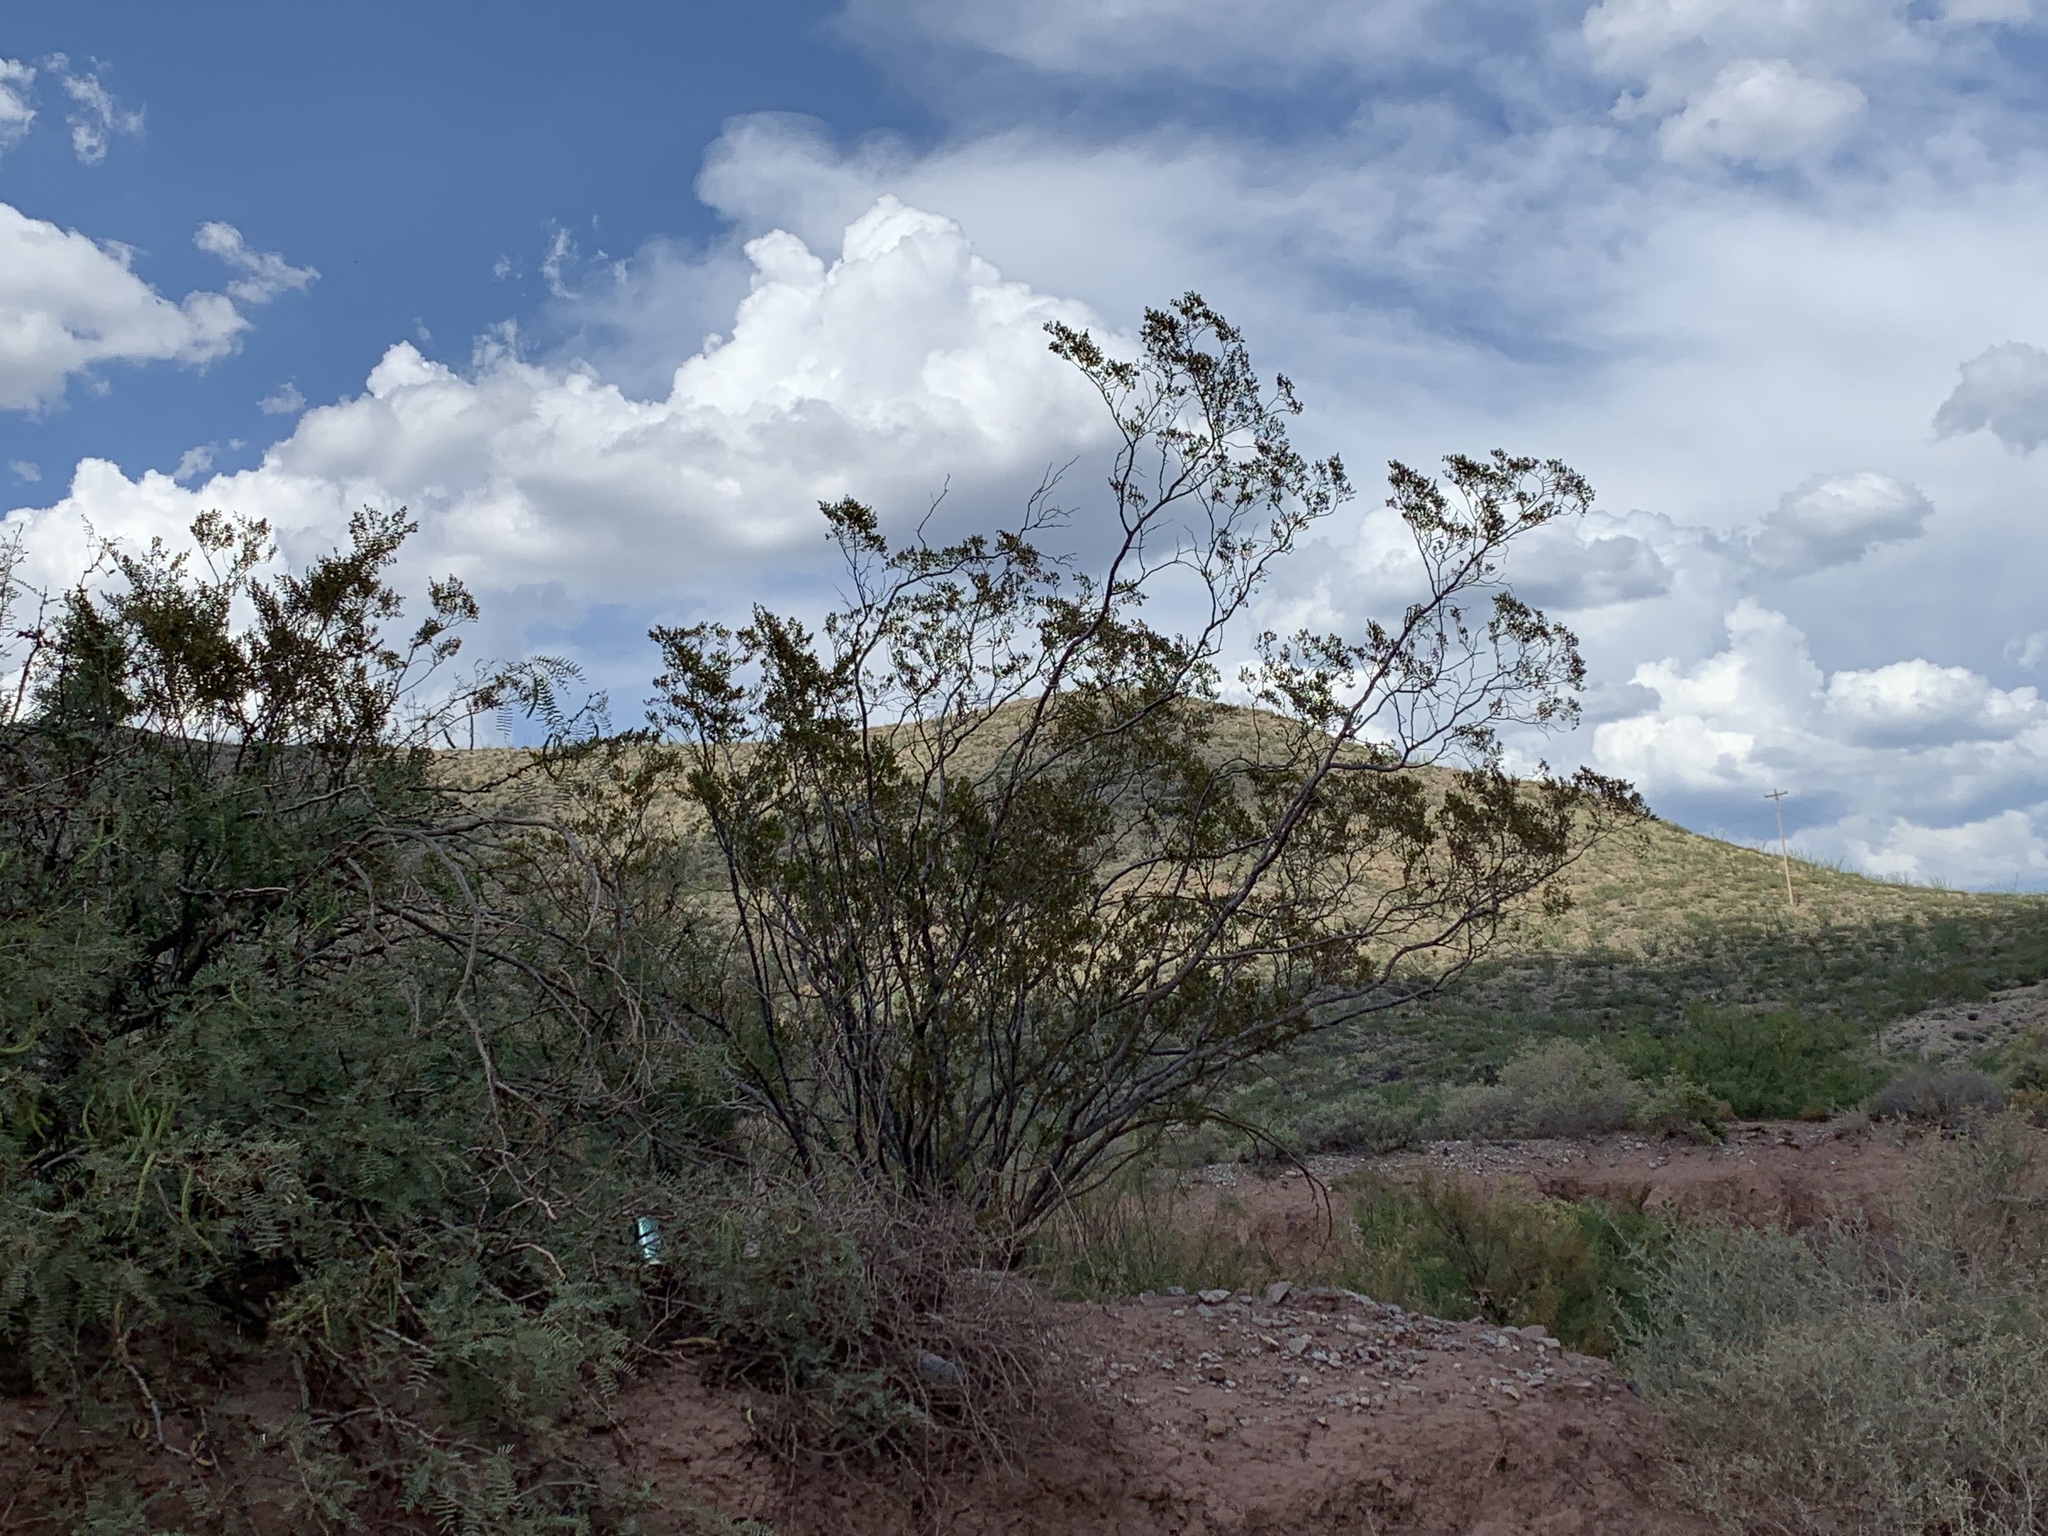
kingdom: Plantae
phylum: Tracheophyta
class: Magnoliopsida
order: Zygophyllales
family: Zygophyllaceae
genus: Larrea
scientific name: Larrea tridentata
